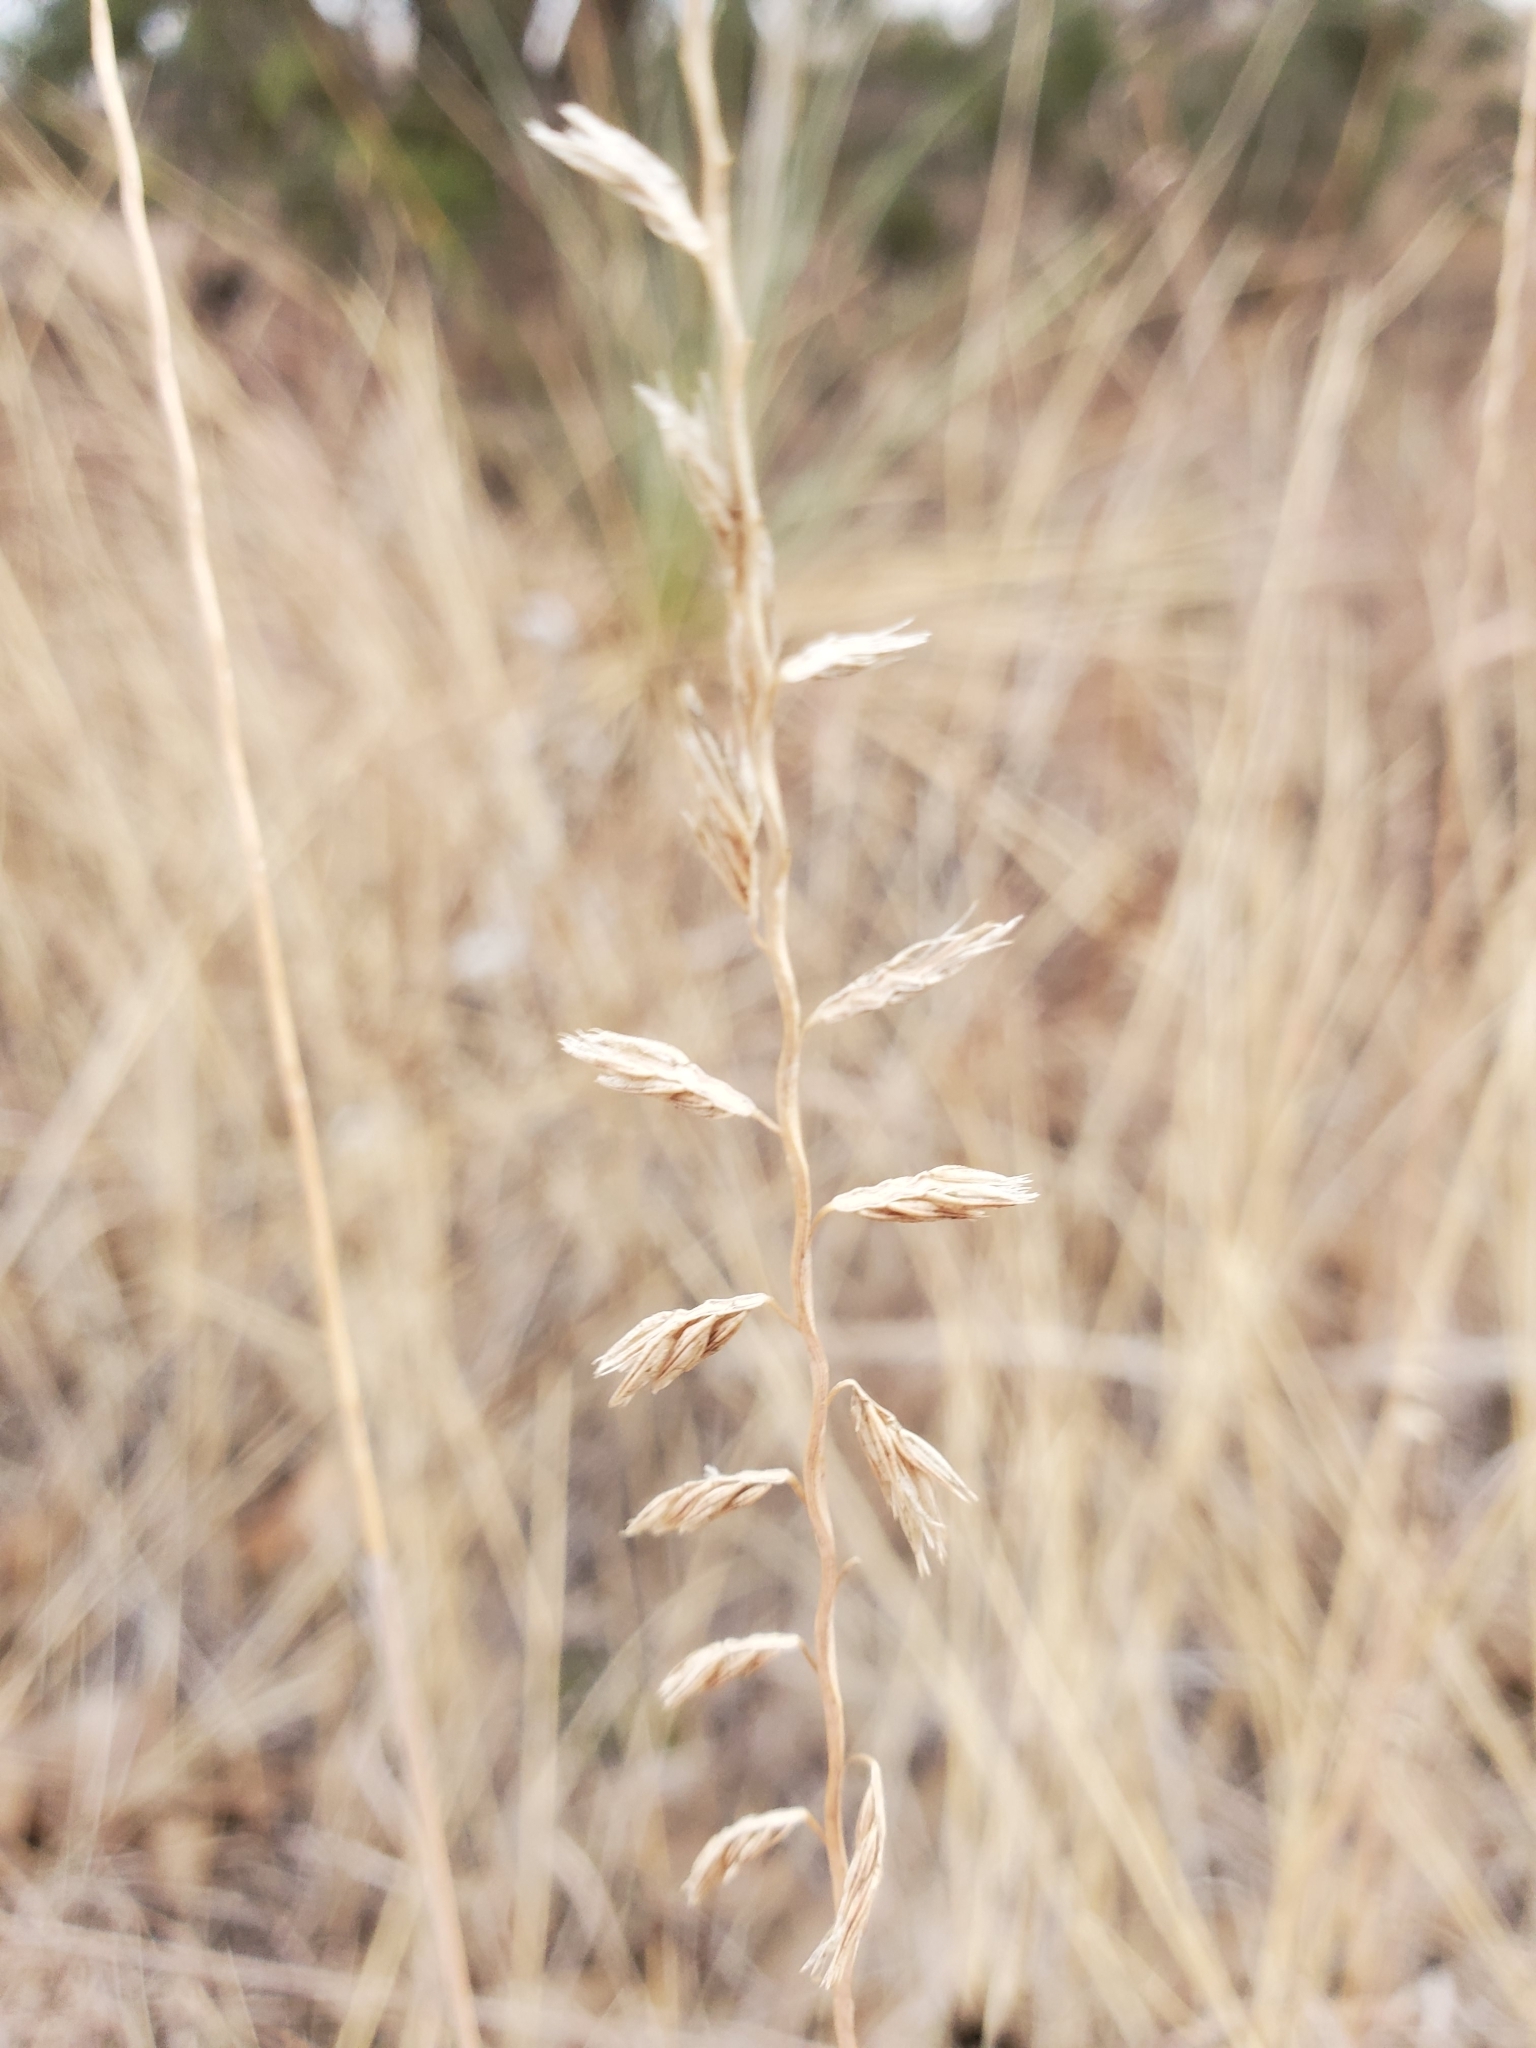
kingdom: Plantae
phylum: Tracheophyta
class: Liliopsida
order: Poales
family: Poaceae
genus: Bouteloua
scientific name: Bouteloua curtipendula
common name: Side-oats grama
